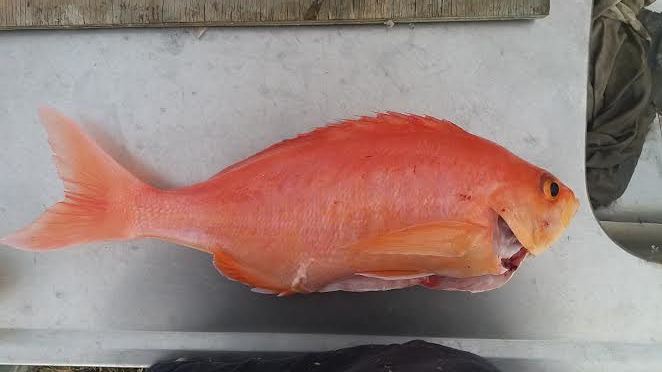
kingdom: Animalia
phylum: Chordata
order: Perciformes
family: Serranidae
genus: Caprodon
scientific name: Caprodon longimanus
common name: Pink maomao
